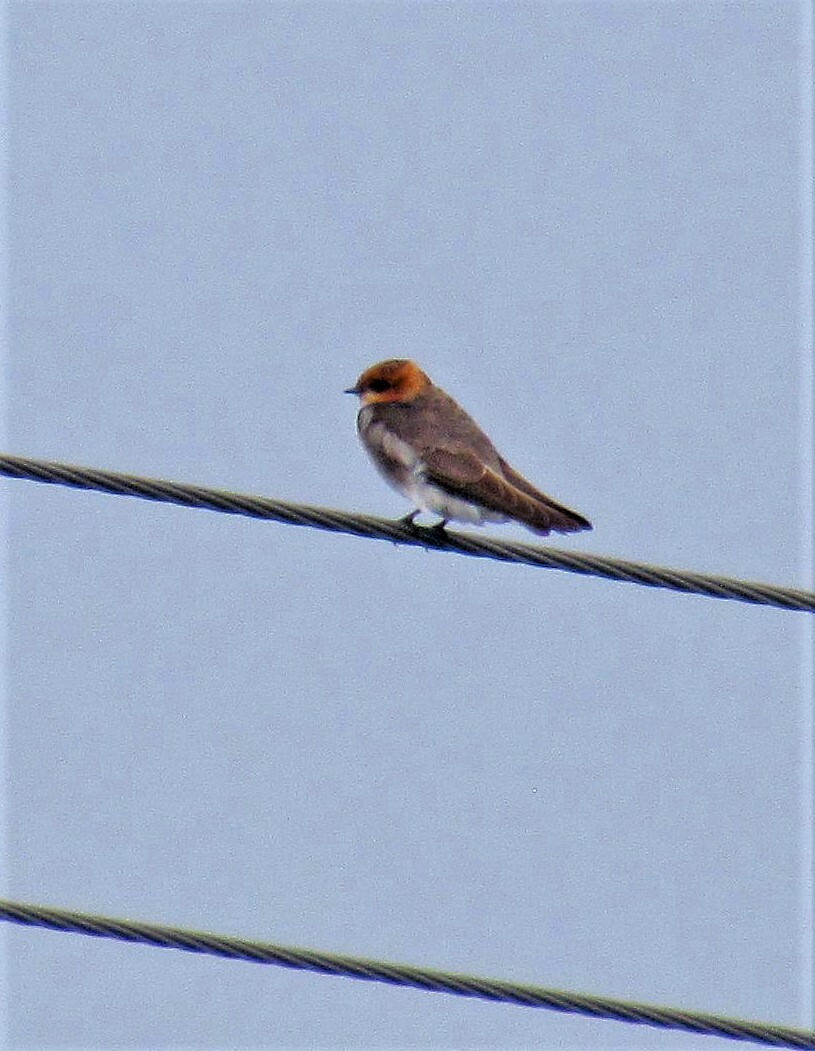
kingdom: Animalia
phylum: Chordata
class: Aves
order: Passeriformes
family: Hirundinidae
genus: Alopochelidon
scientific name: Alopochelidon fucata
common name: Tawny-headed swallow
